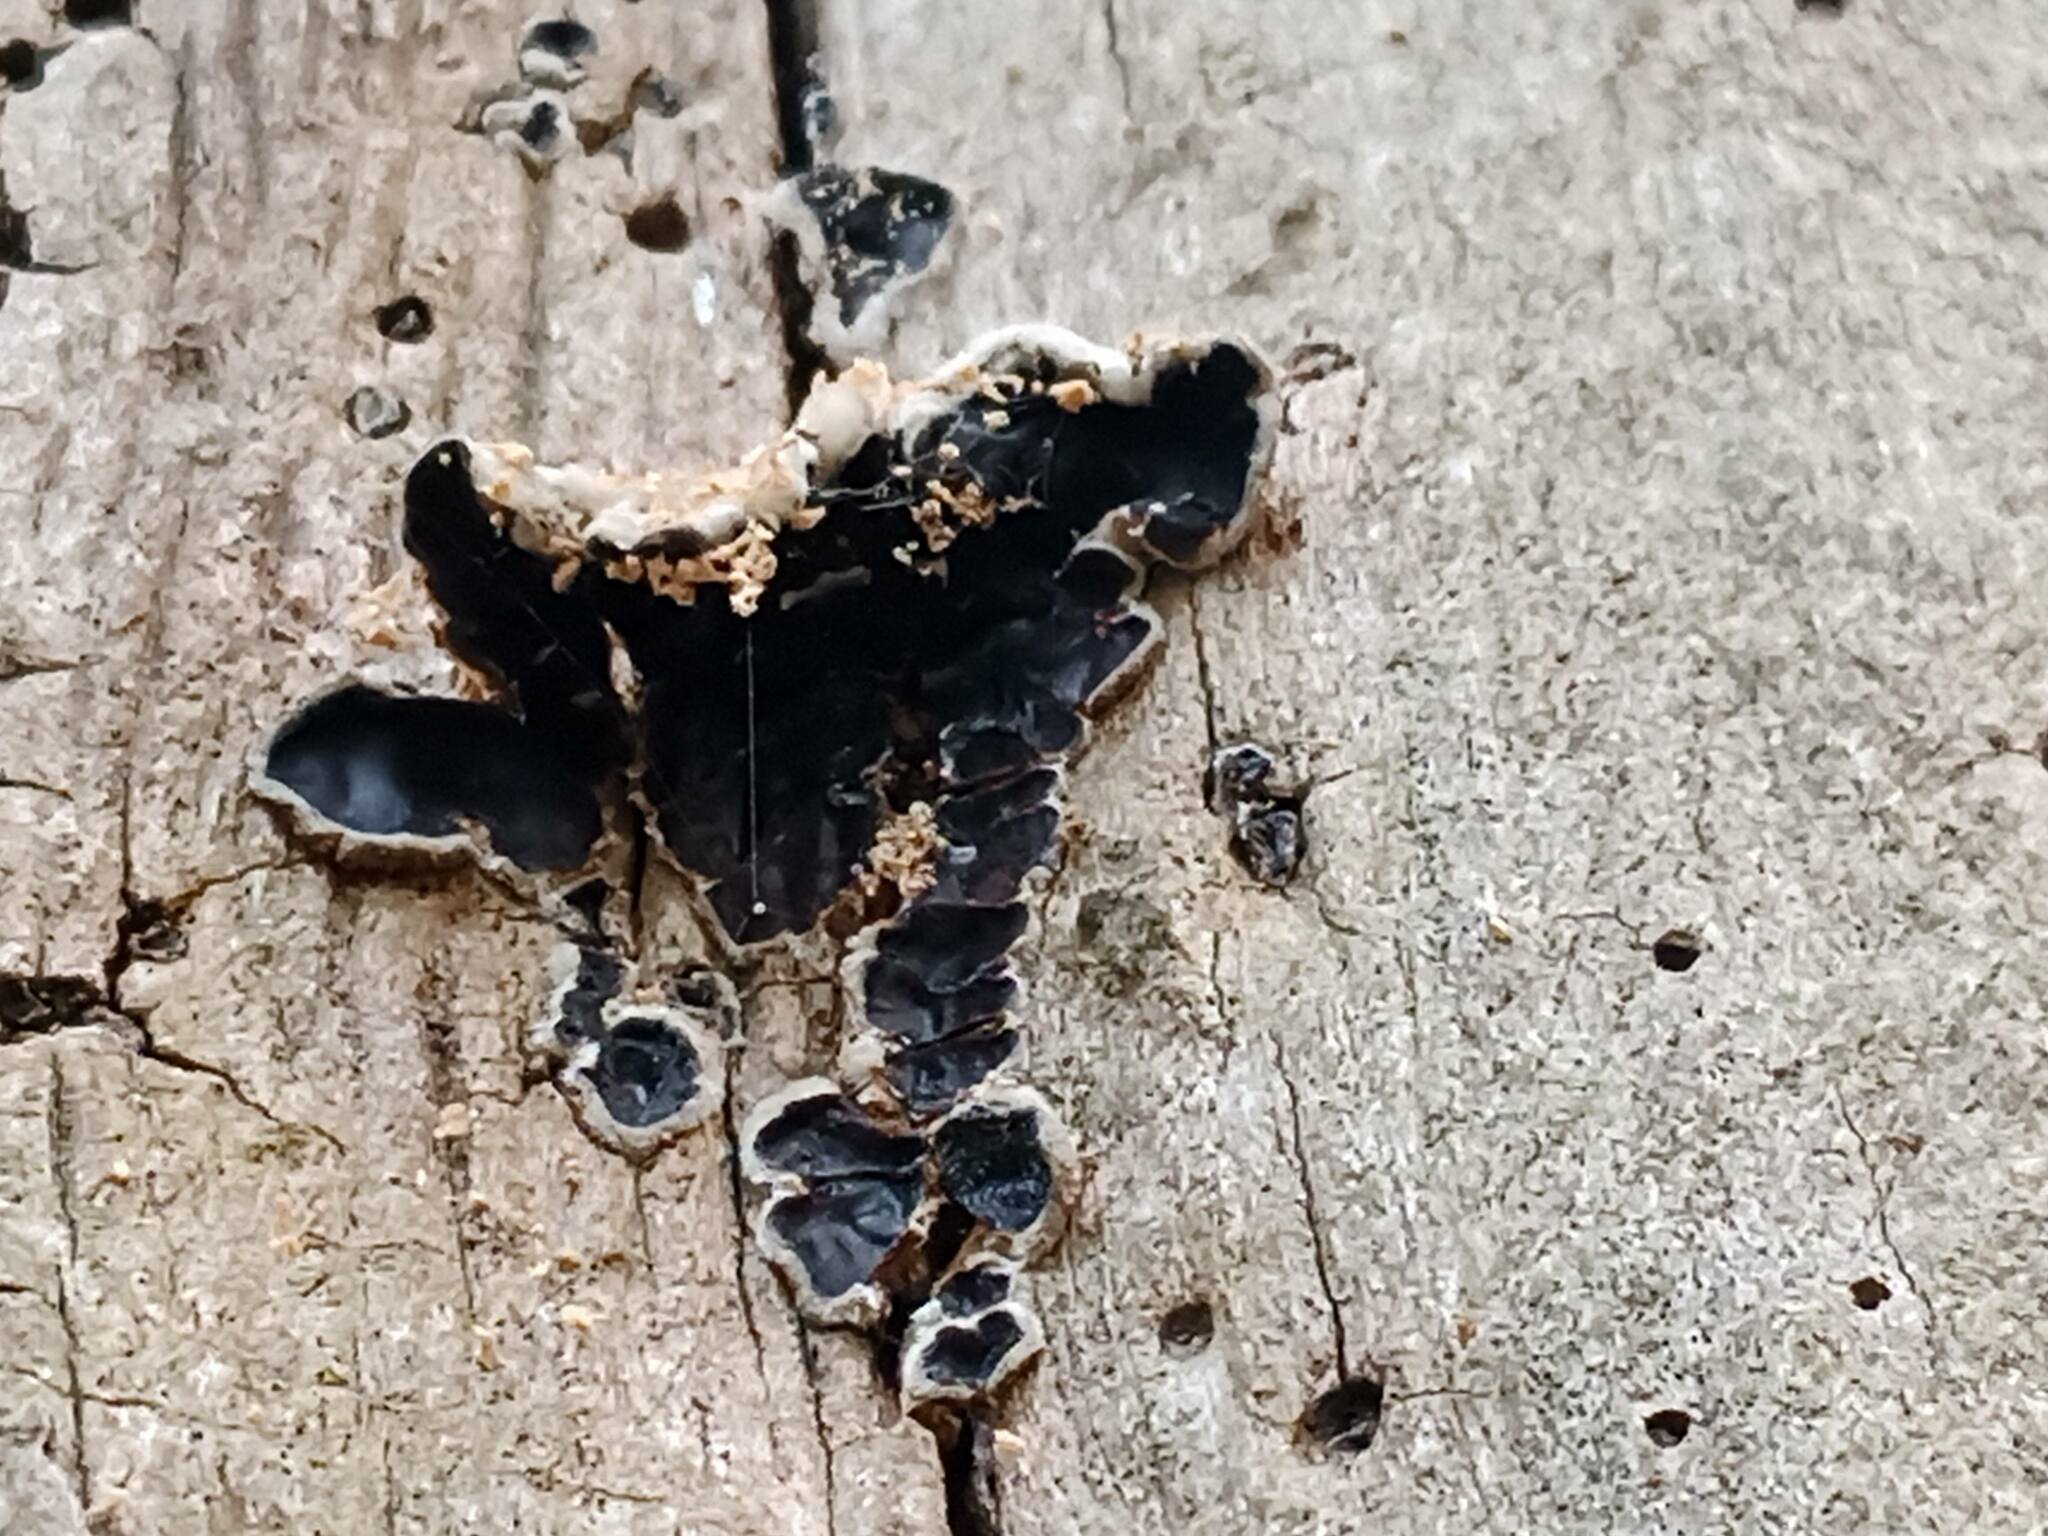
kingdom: Fungi
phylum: Basidiomycota
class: Agaricomycetes
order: Auriculariales
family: Auriculariaceae
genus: Auricularia
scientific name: Auricularia mesenterica
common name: Tripe fungus
